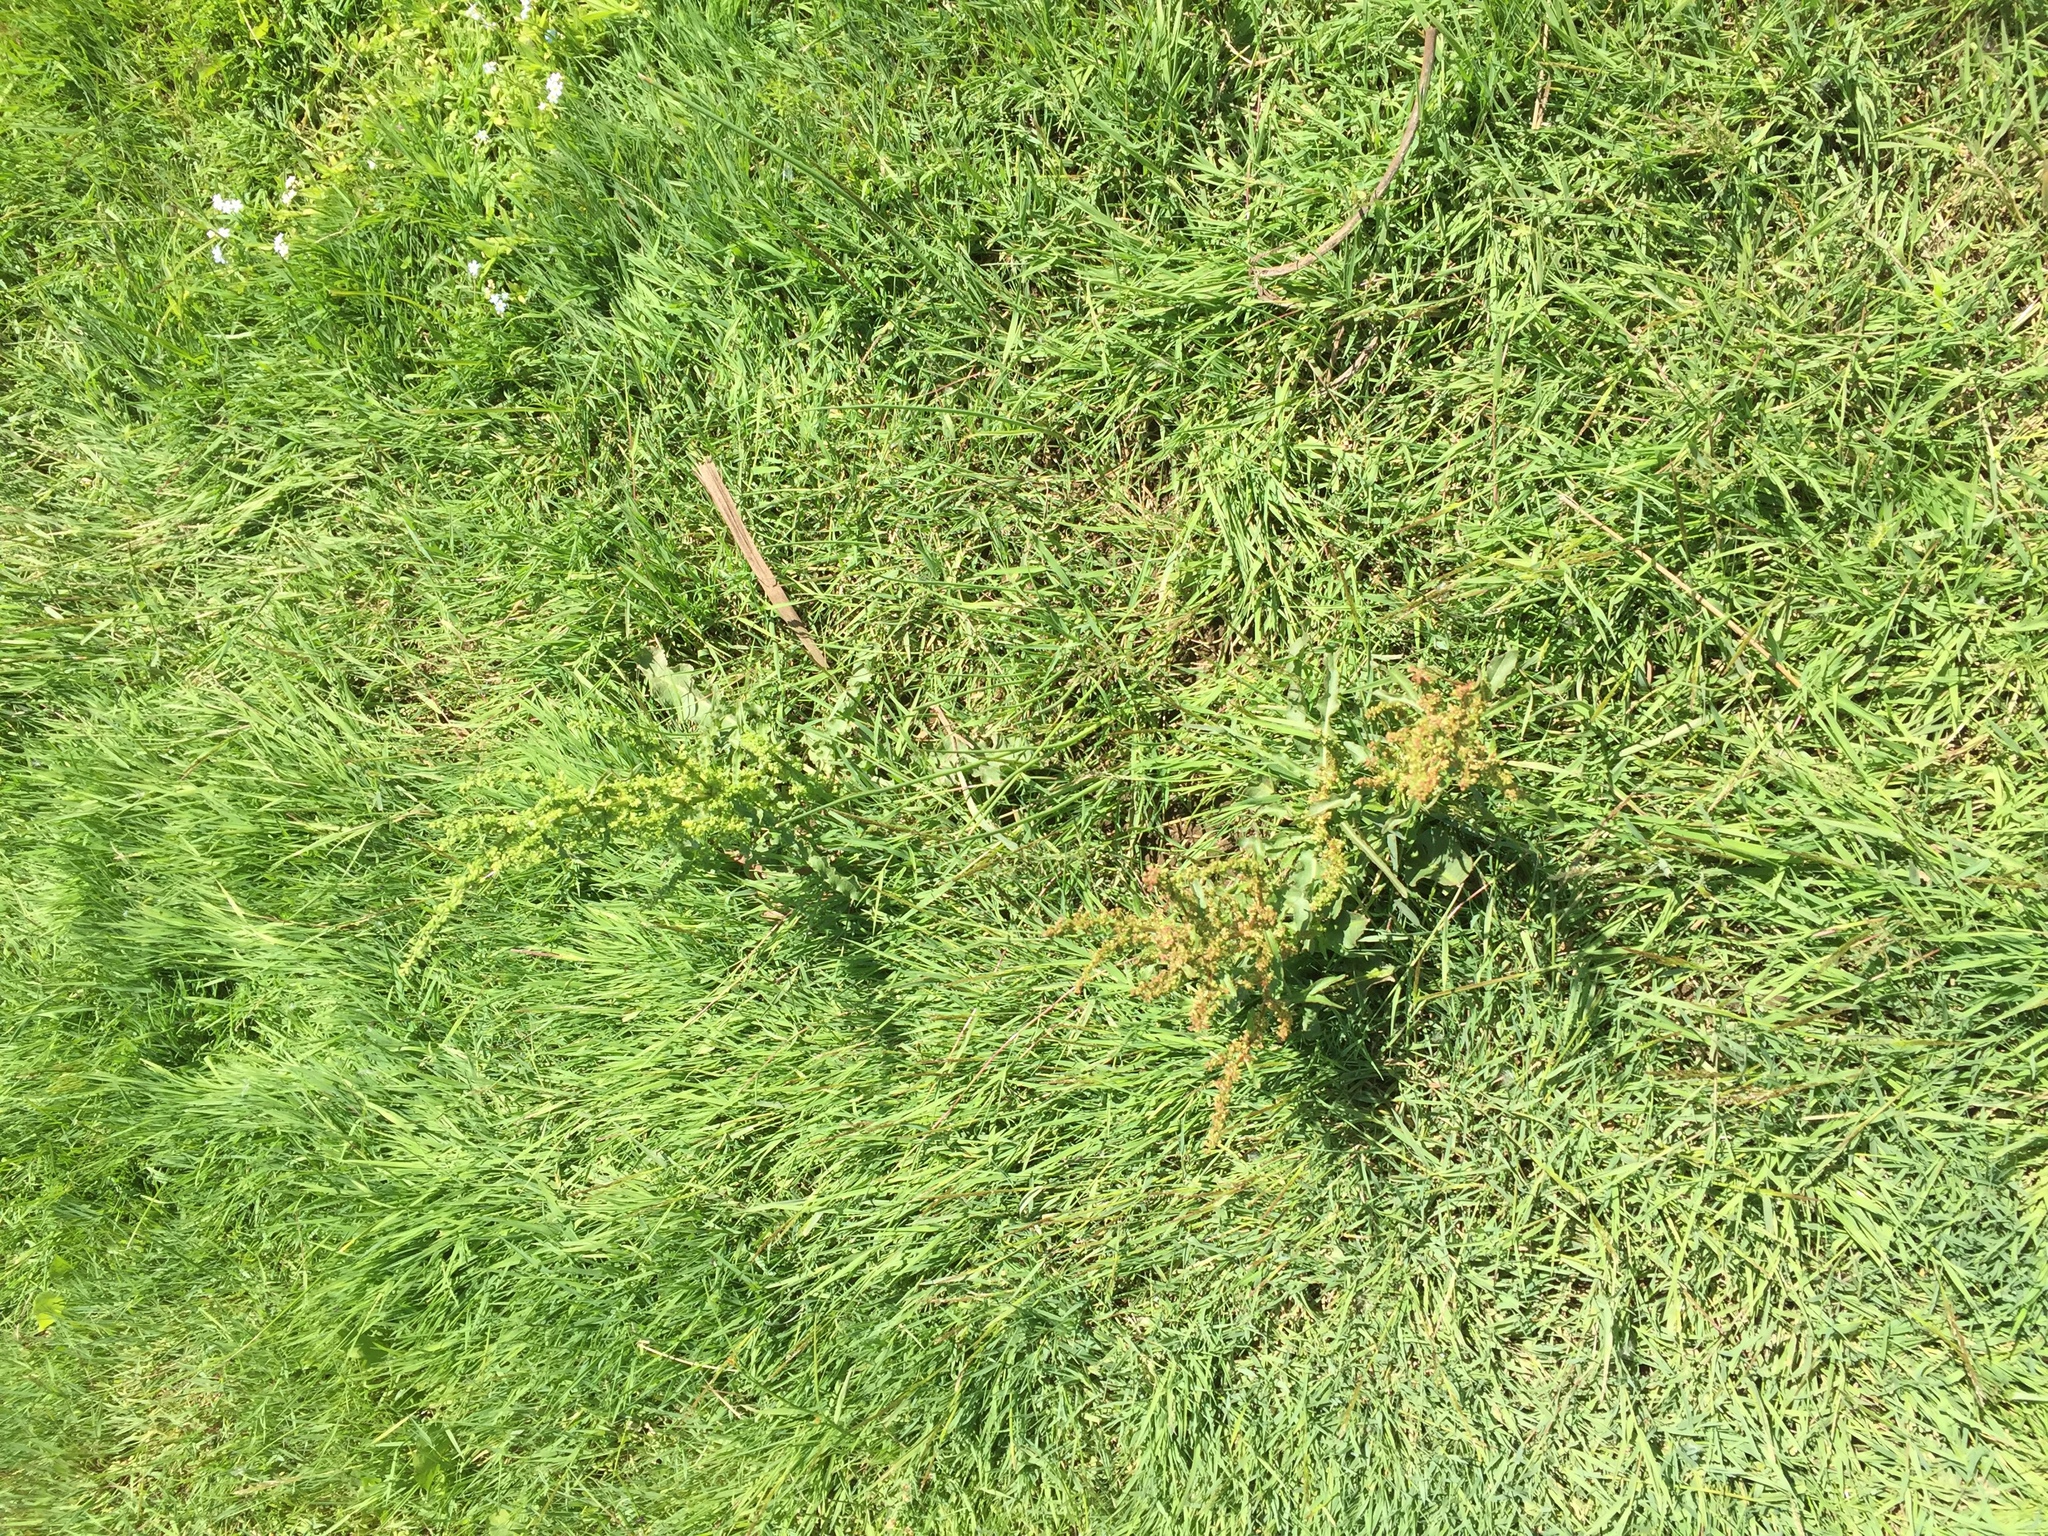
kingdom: Plantae
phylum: Tracheophyta
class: Magnoliopsida
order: Caryophyllales
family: Polygonaceae
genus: Rumex
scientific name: Rumex crispus
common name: Curled dock
